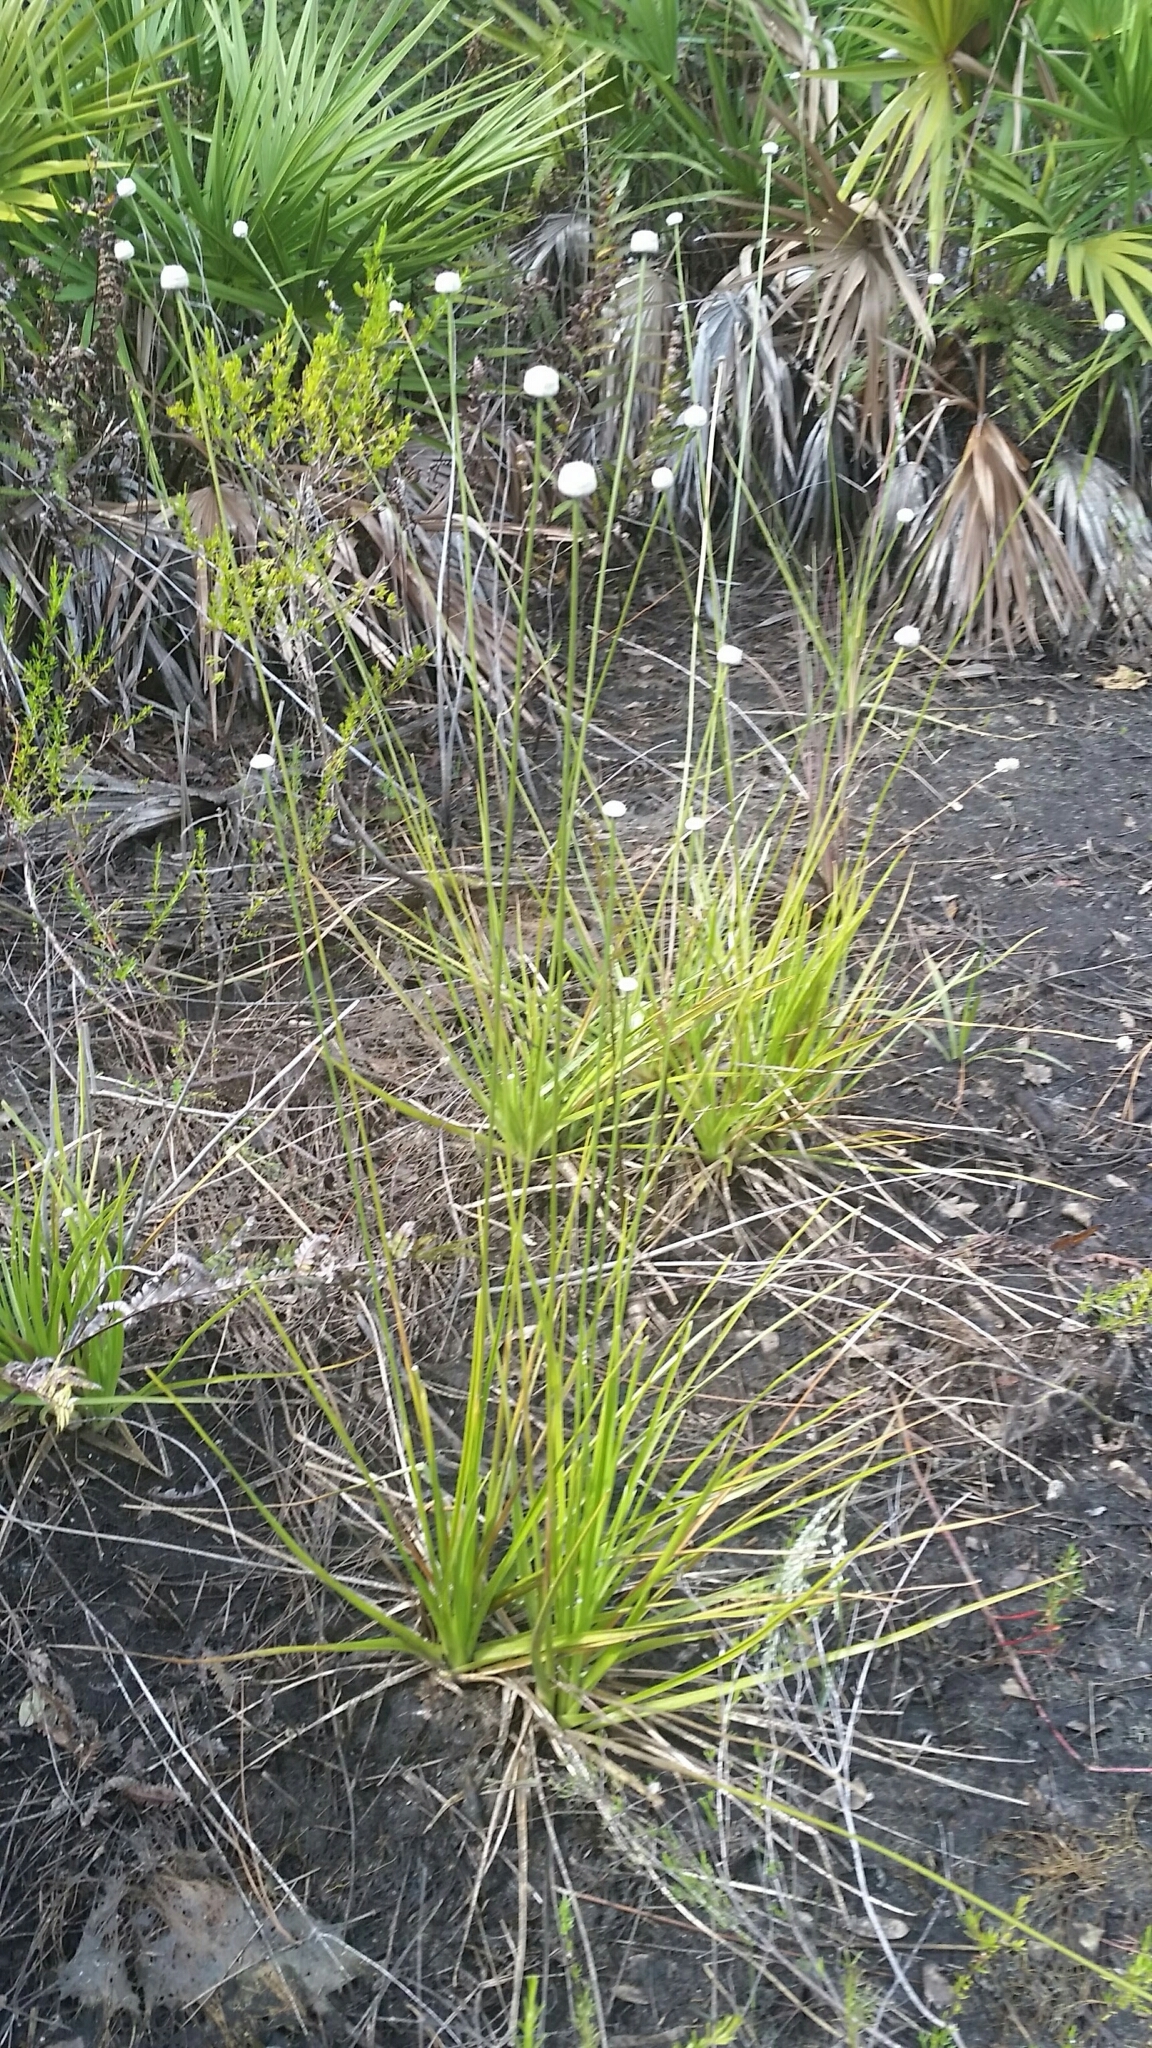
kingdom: Plantae
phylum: Tracheophyta
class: Liliopsida
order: Poales
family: Eriocaulaceae
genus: Eriocaulon
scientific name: Eriocaulon decangulare
